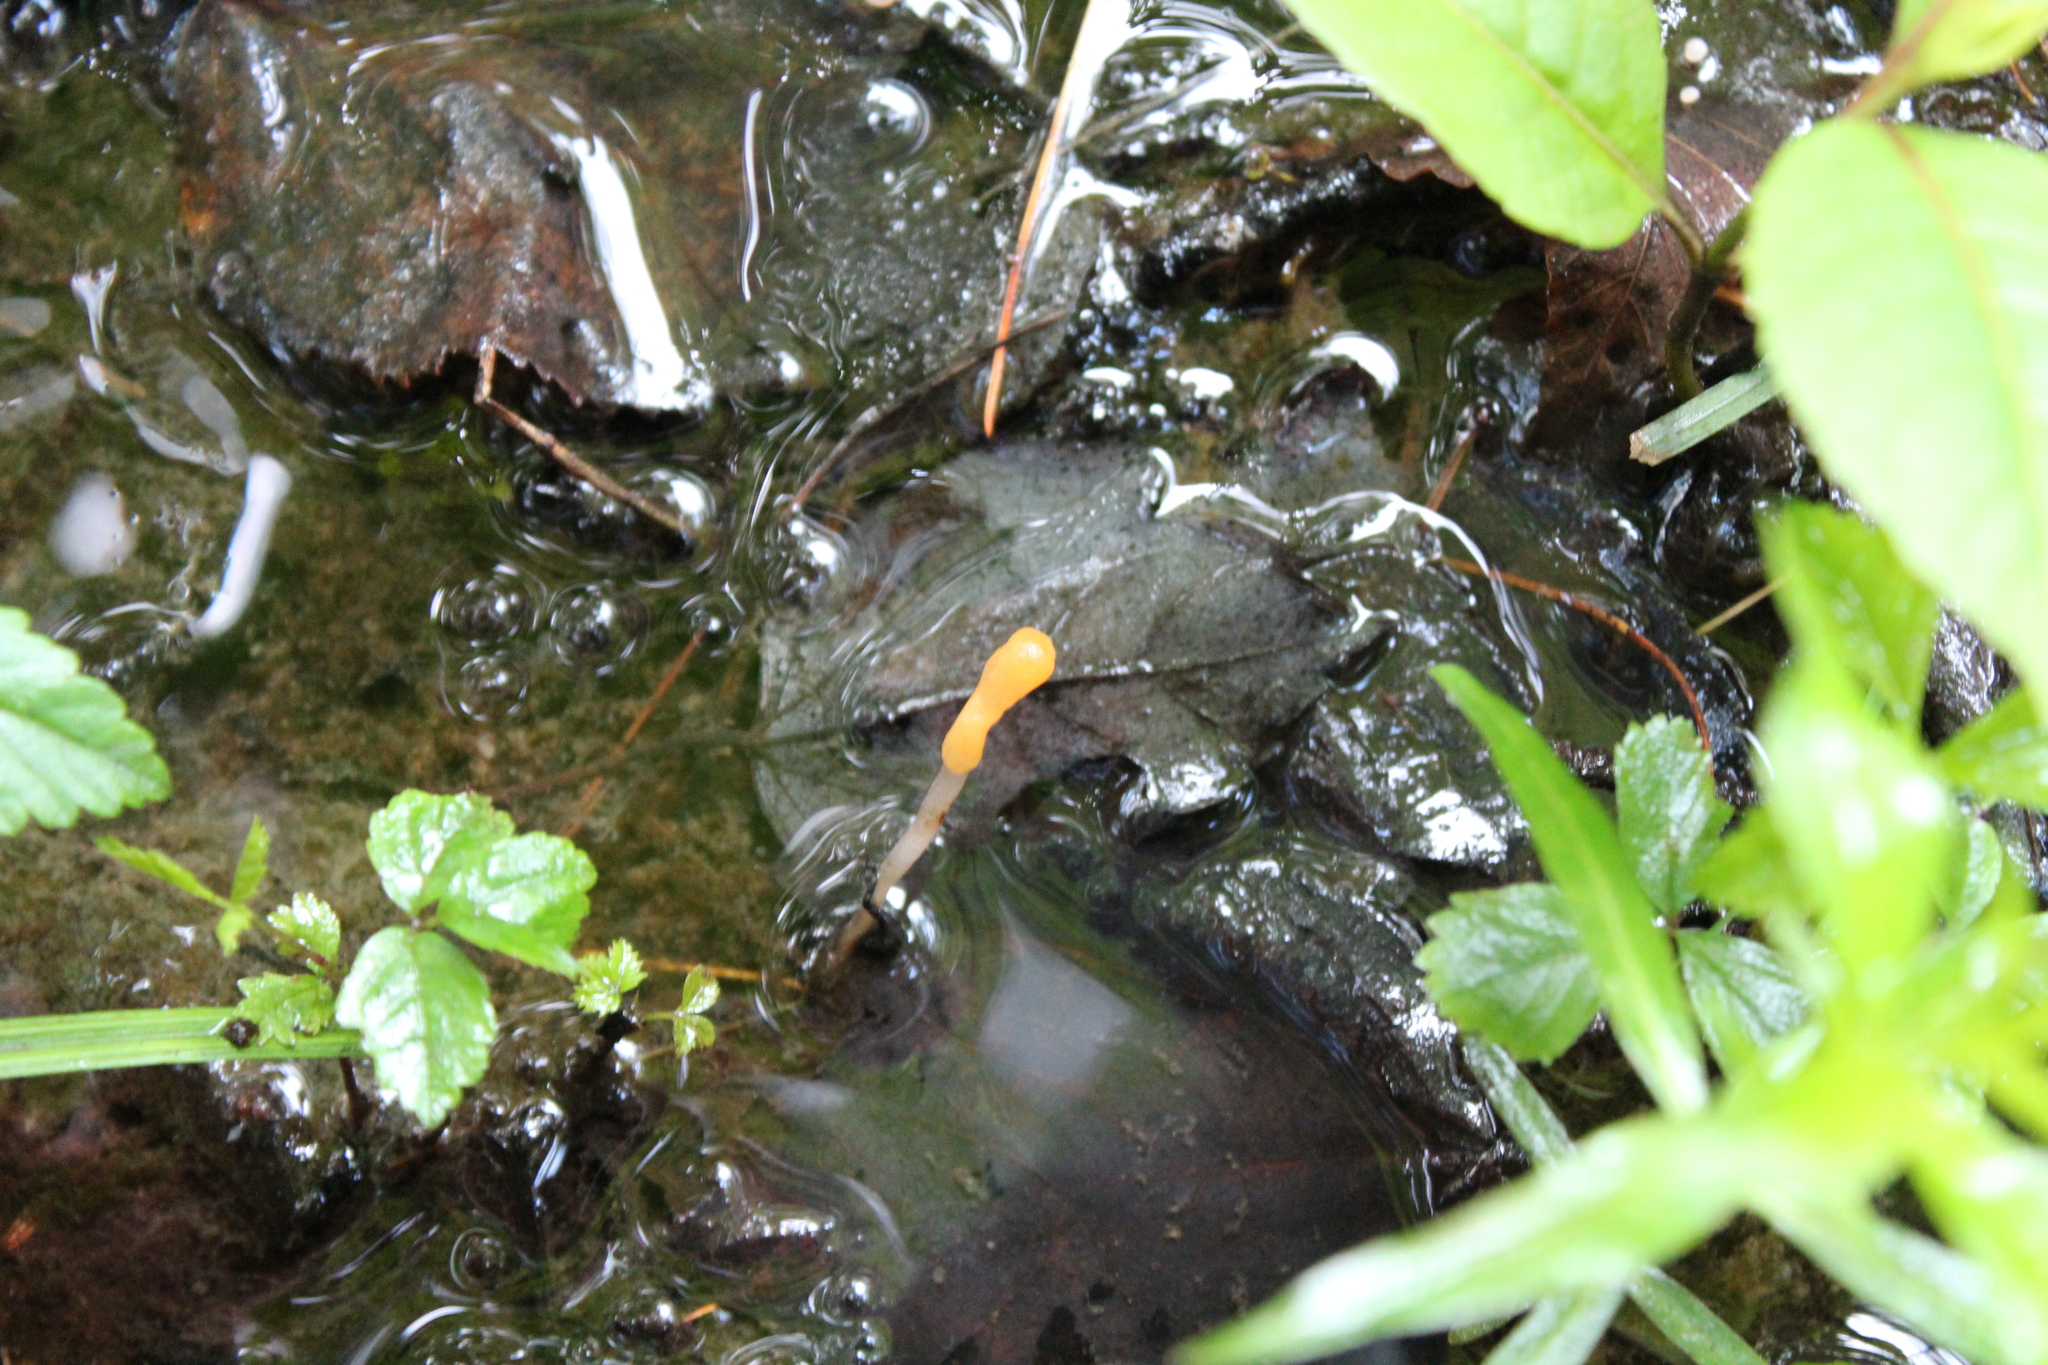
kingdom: Fungi
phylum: Ascomycota
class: Leotiomycetes
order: Helotiales
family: Sclerotiniaceae
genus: Mitrula
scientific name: Mitrula elegans
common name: Swamp beacon
